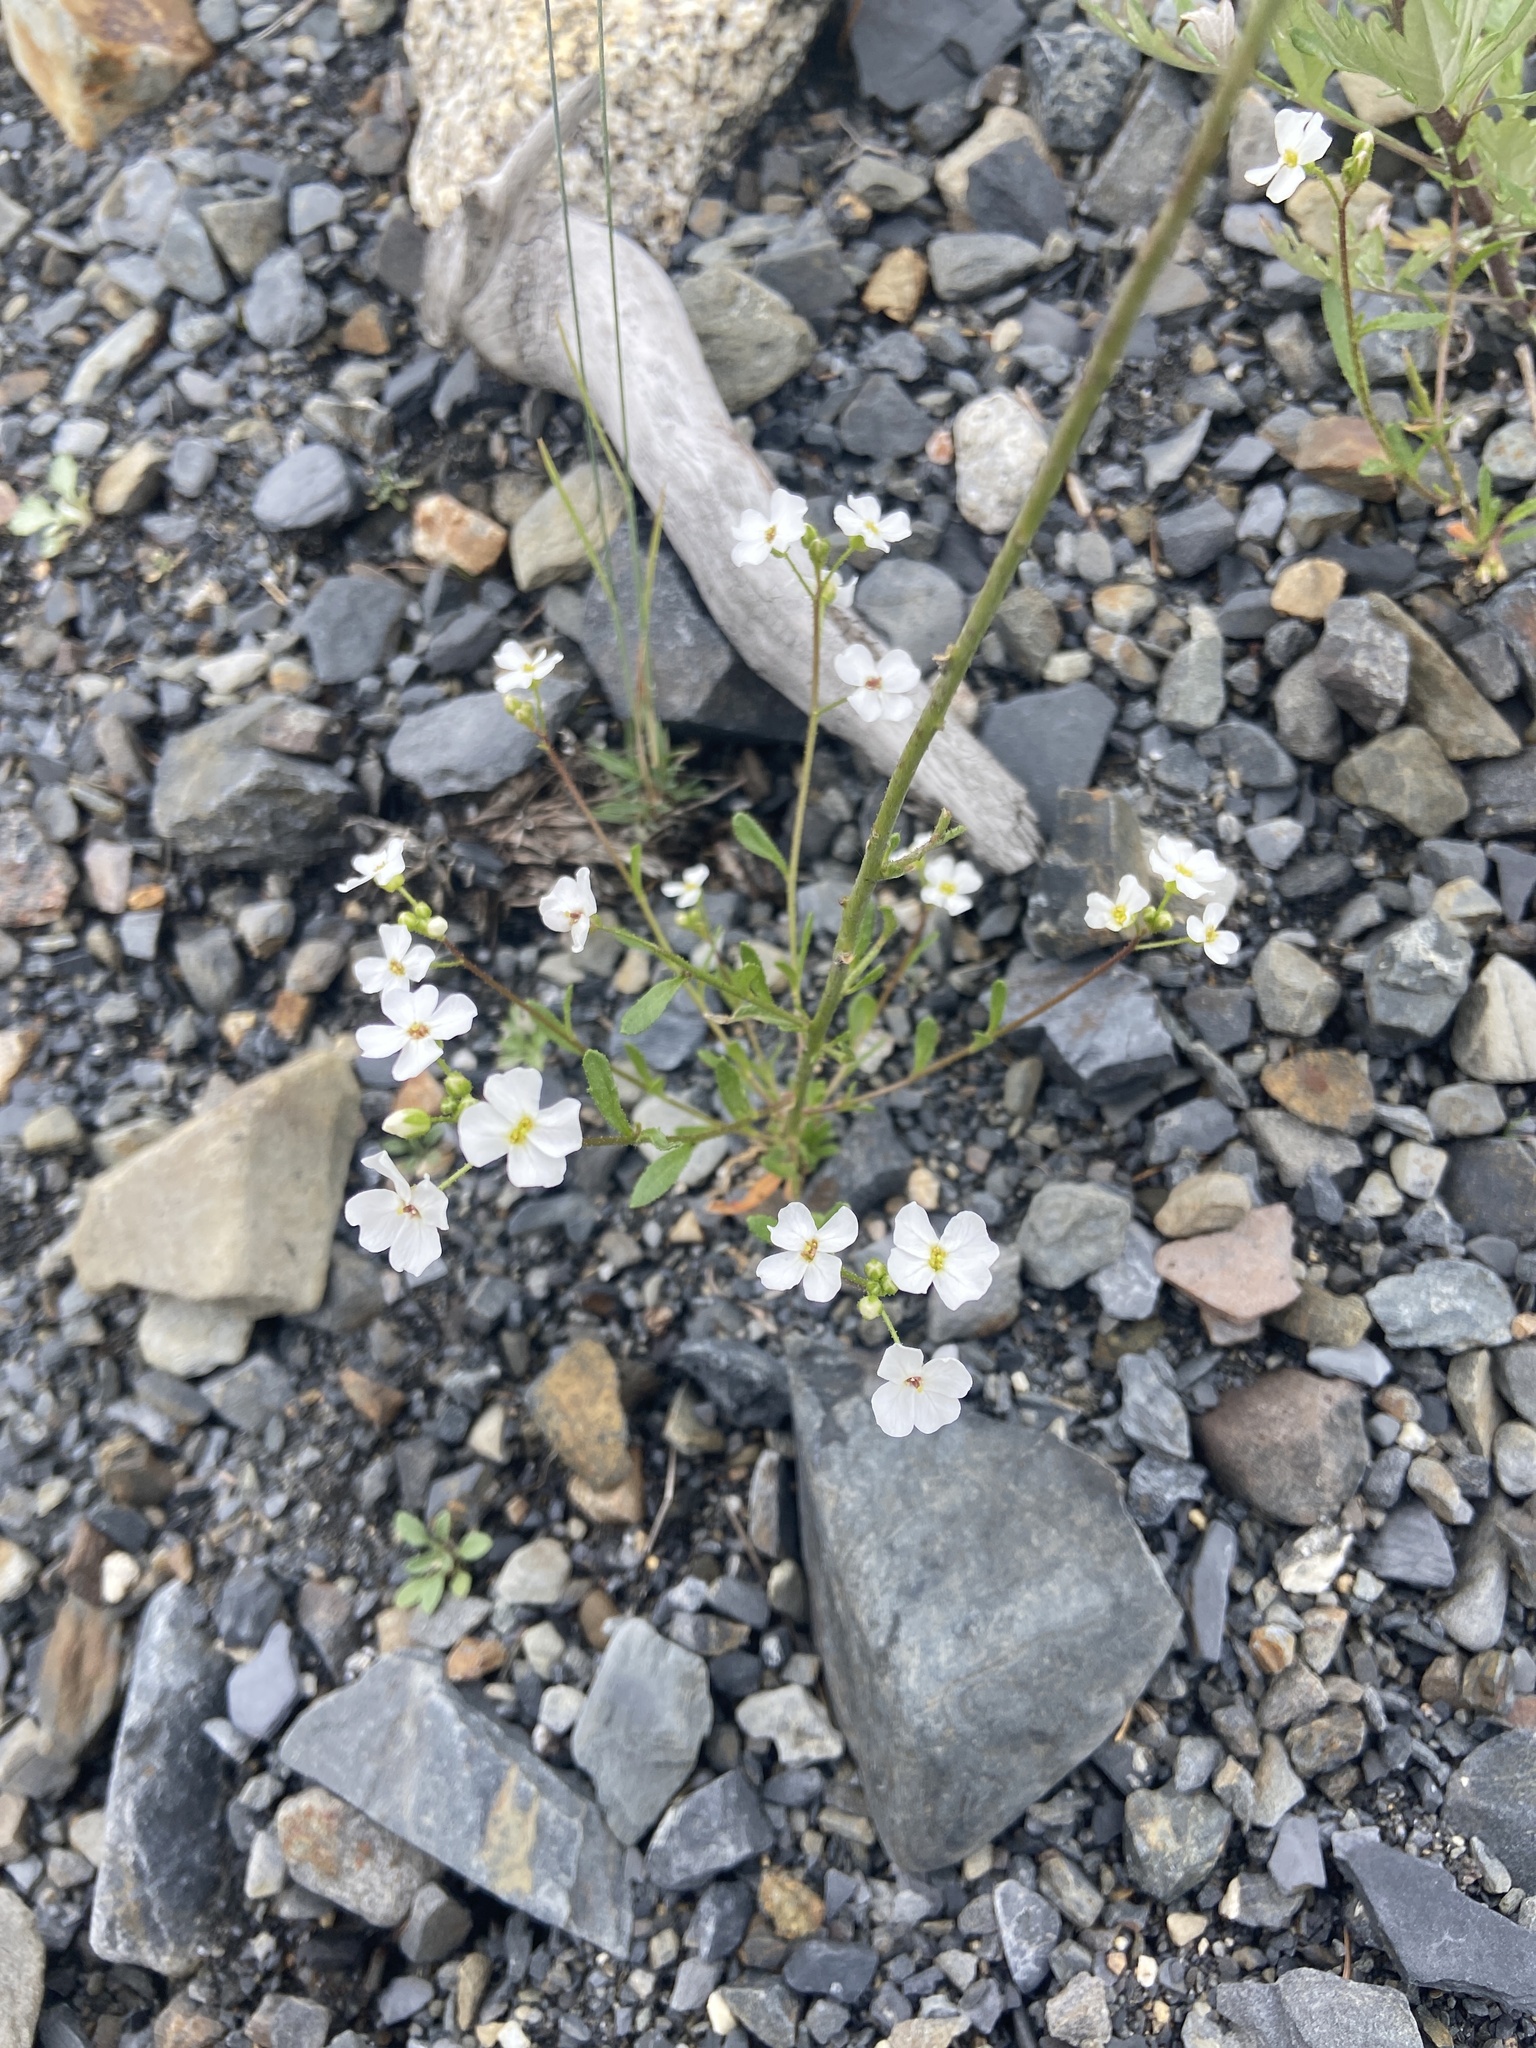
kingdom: Plantae
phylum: Tracheophyta
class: Magnoliopsida
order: Brassicales
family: Brassicaceae
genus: Dontostemon
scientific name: Dontostemon pinnatifidus
